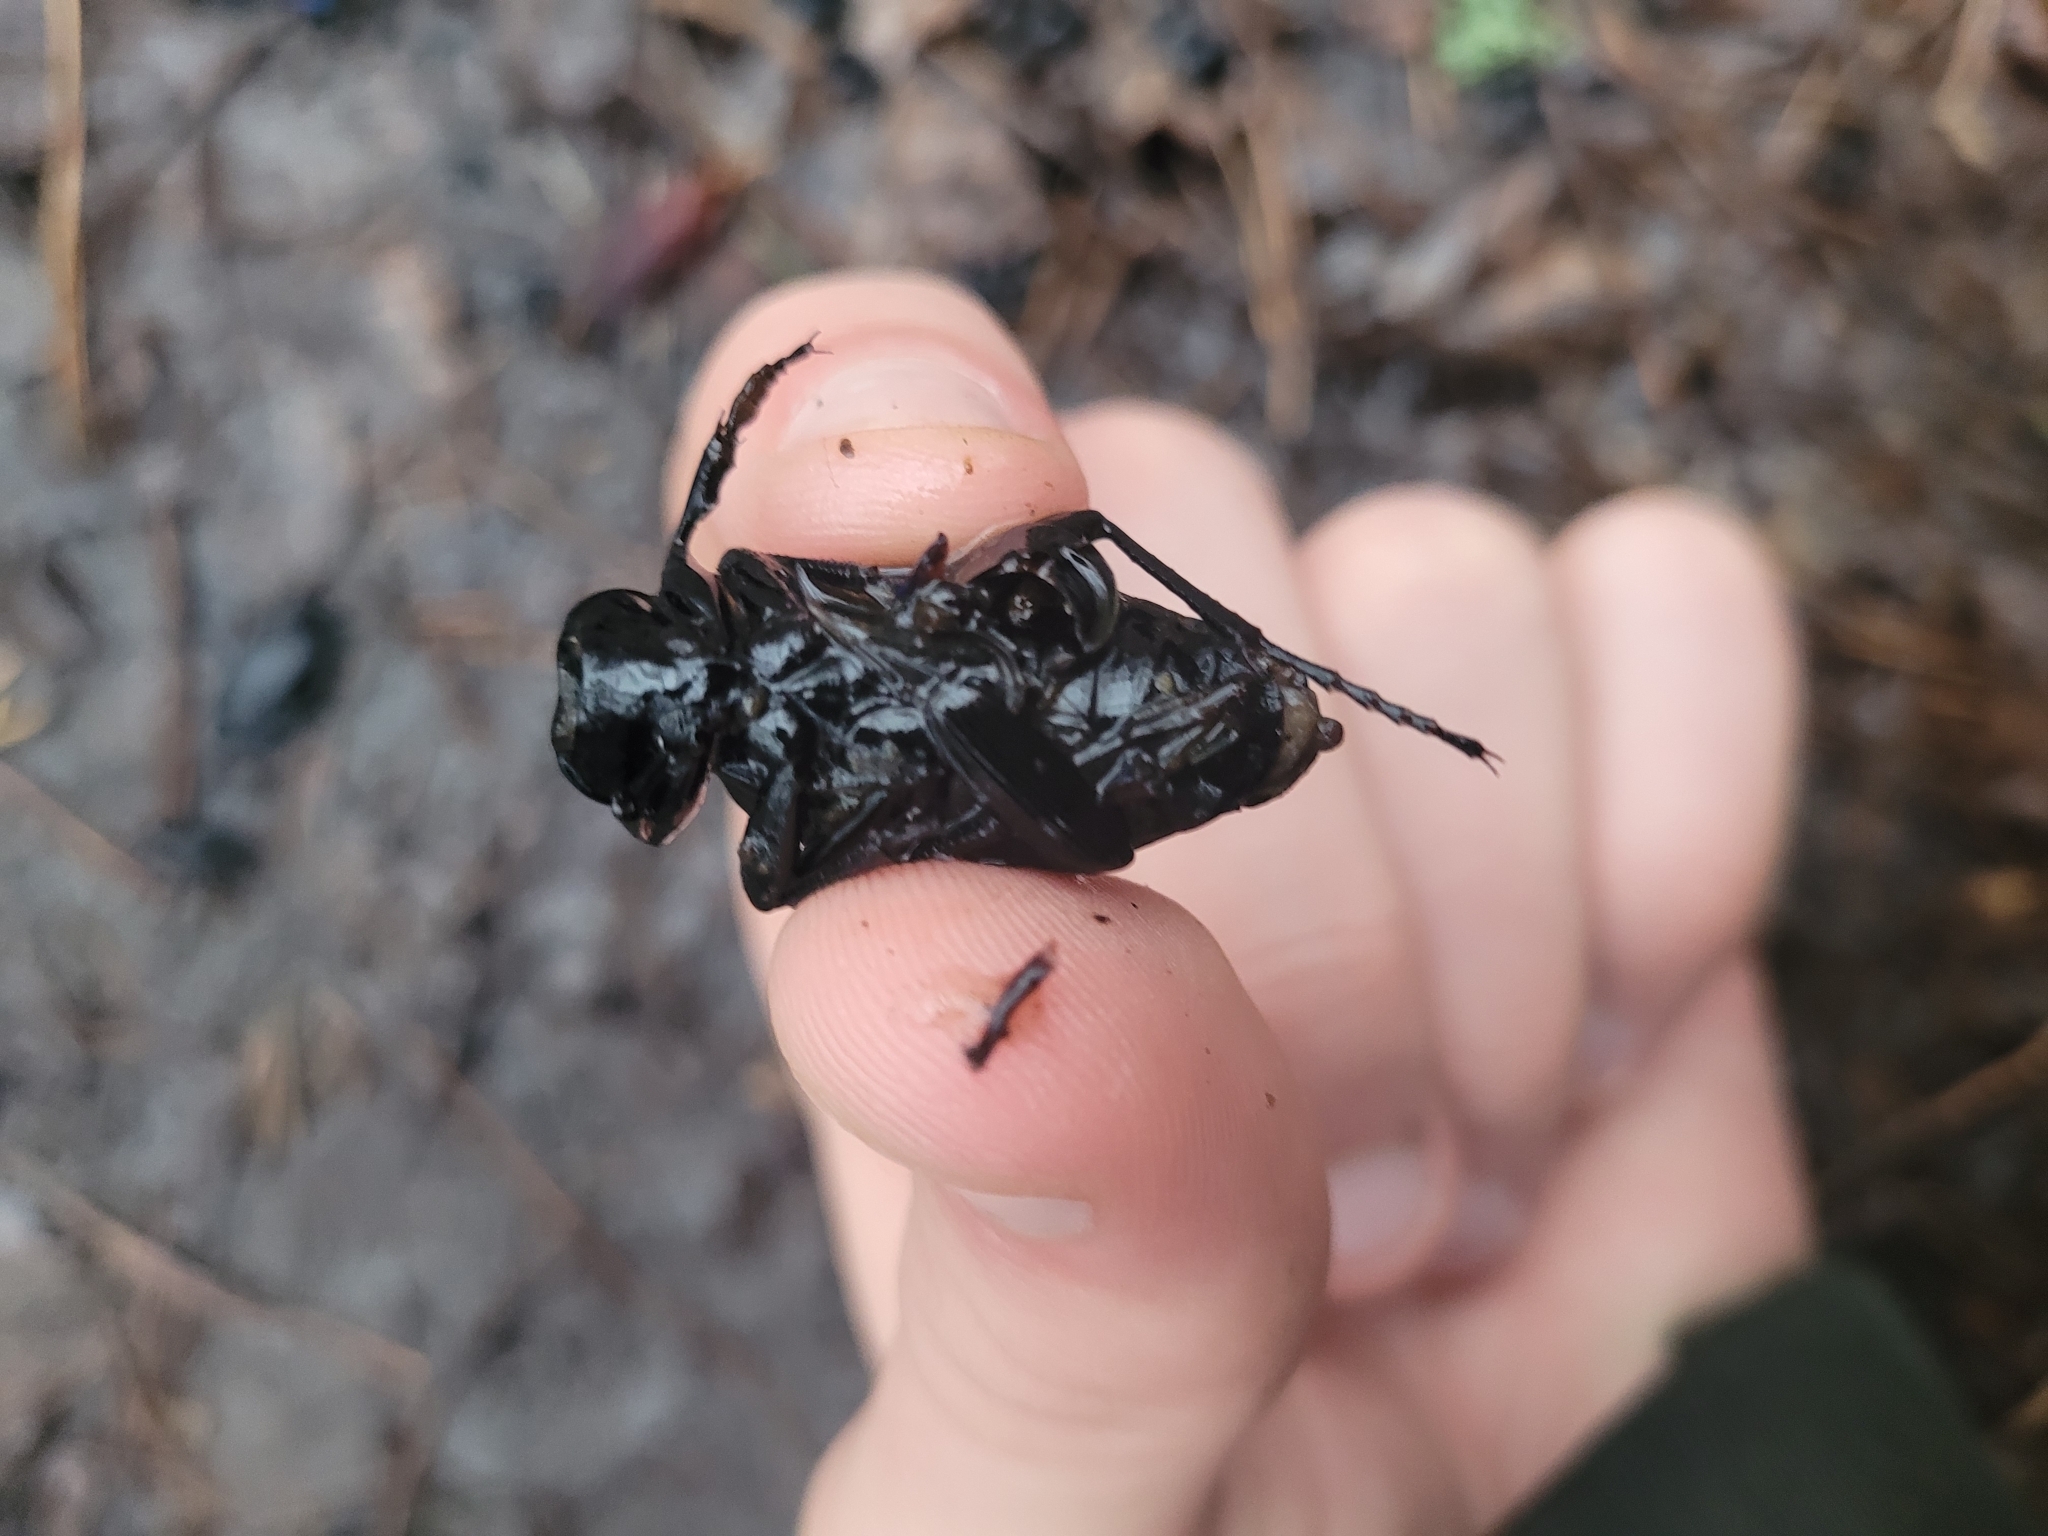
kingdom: Animalia
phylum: Arthropoda
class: Insecta
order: Coleoptera
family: Carabidae
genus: Carabus
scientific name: Carabus coriaceus
